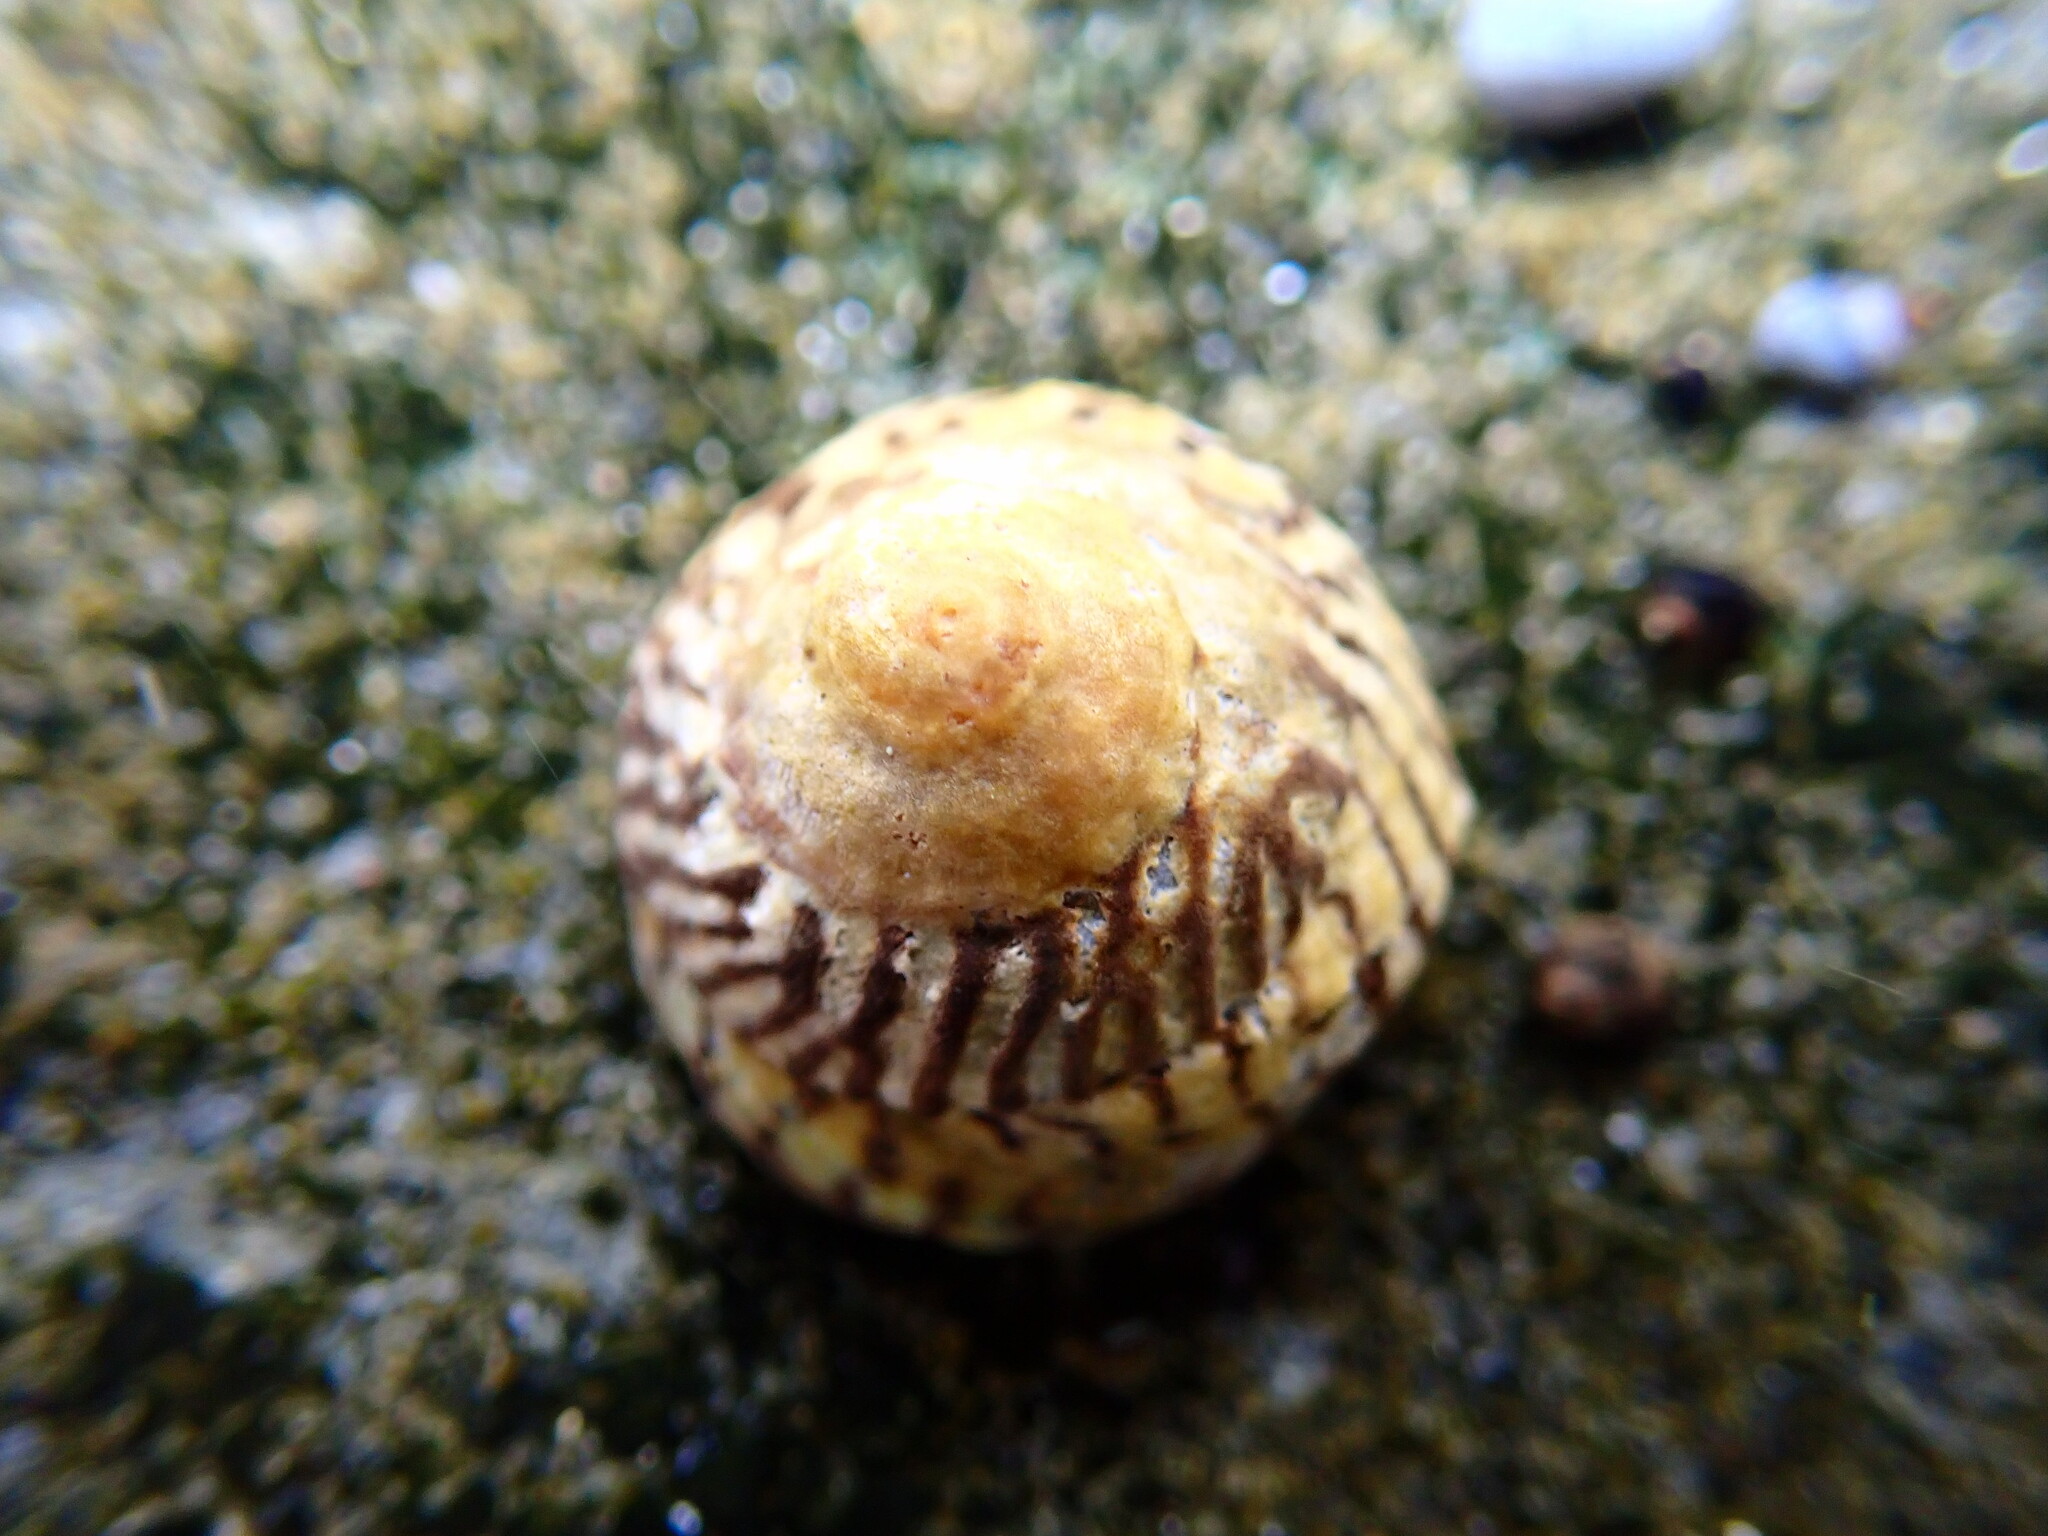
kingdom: Animalia
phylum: Mollusca
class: Gastropoda
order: Littorinimorpha
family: Littorinidae
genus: Bembicium
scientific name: Bembicium nanum
